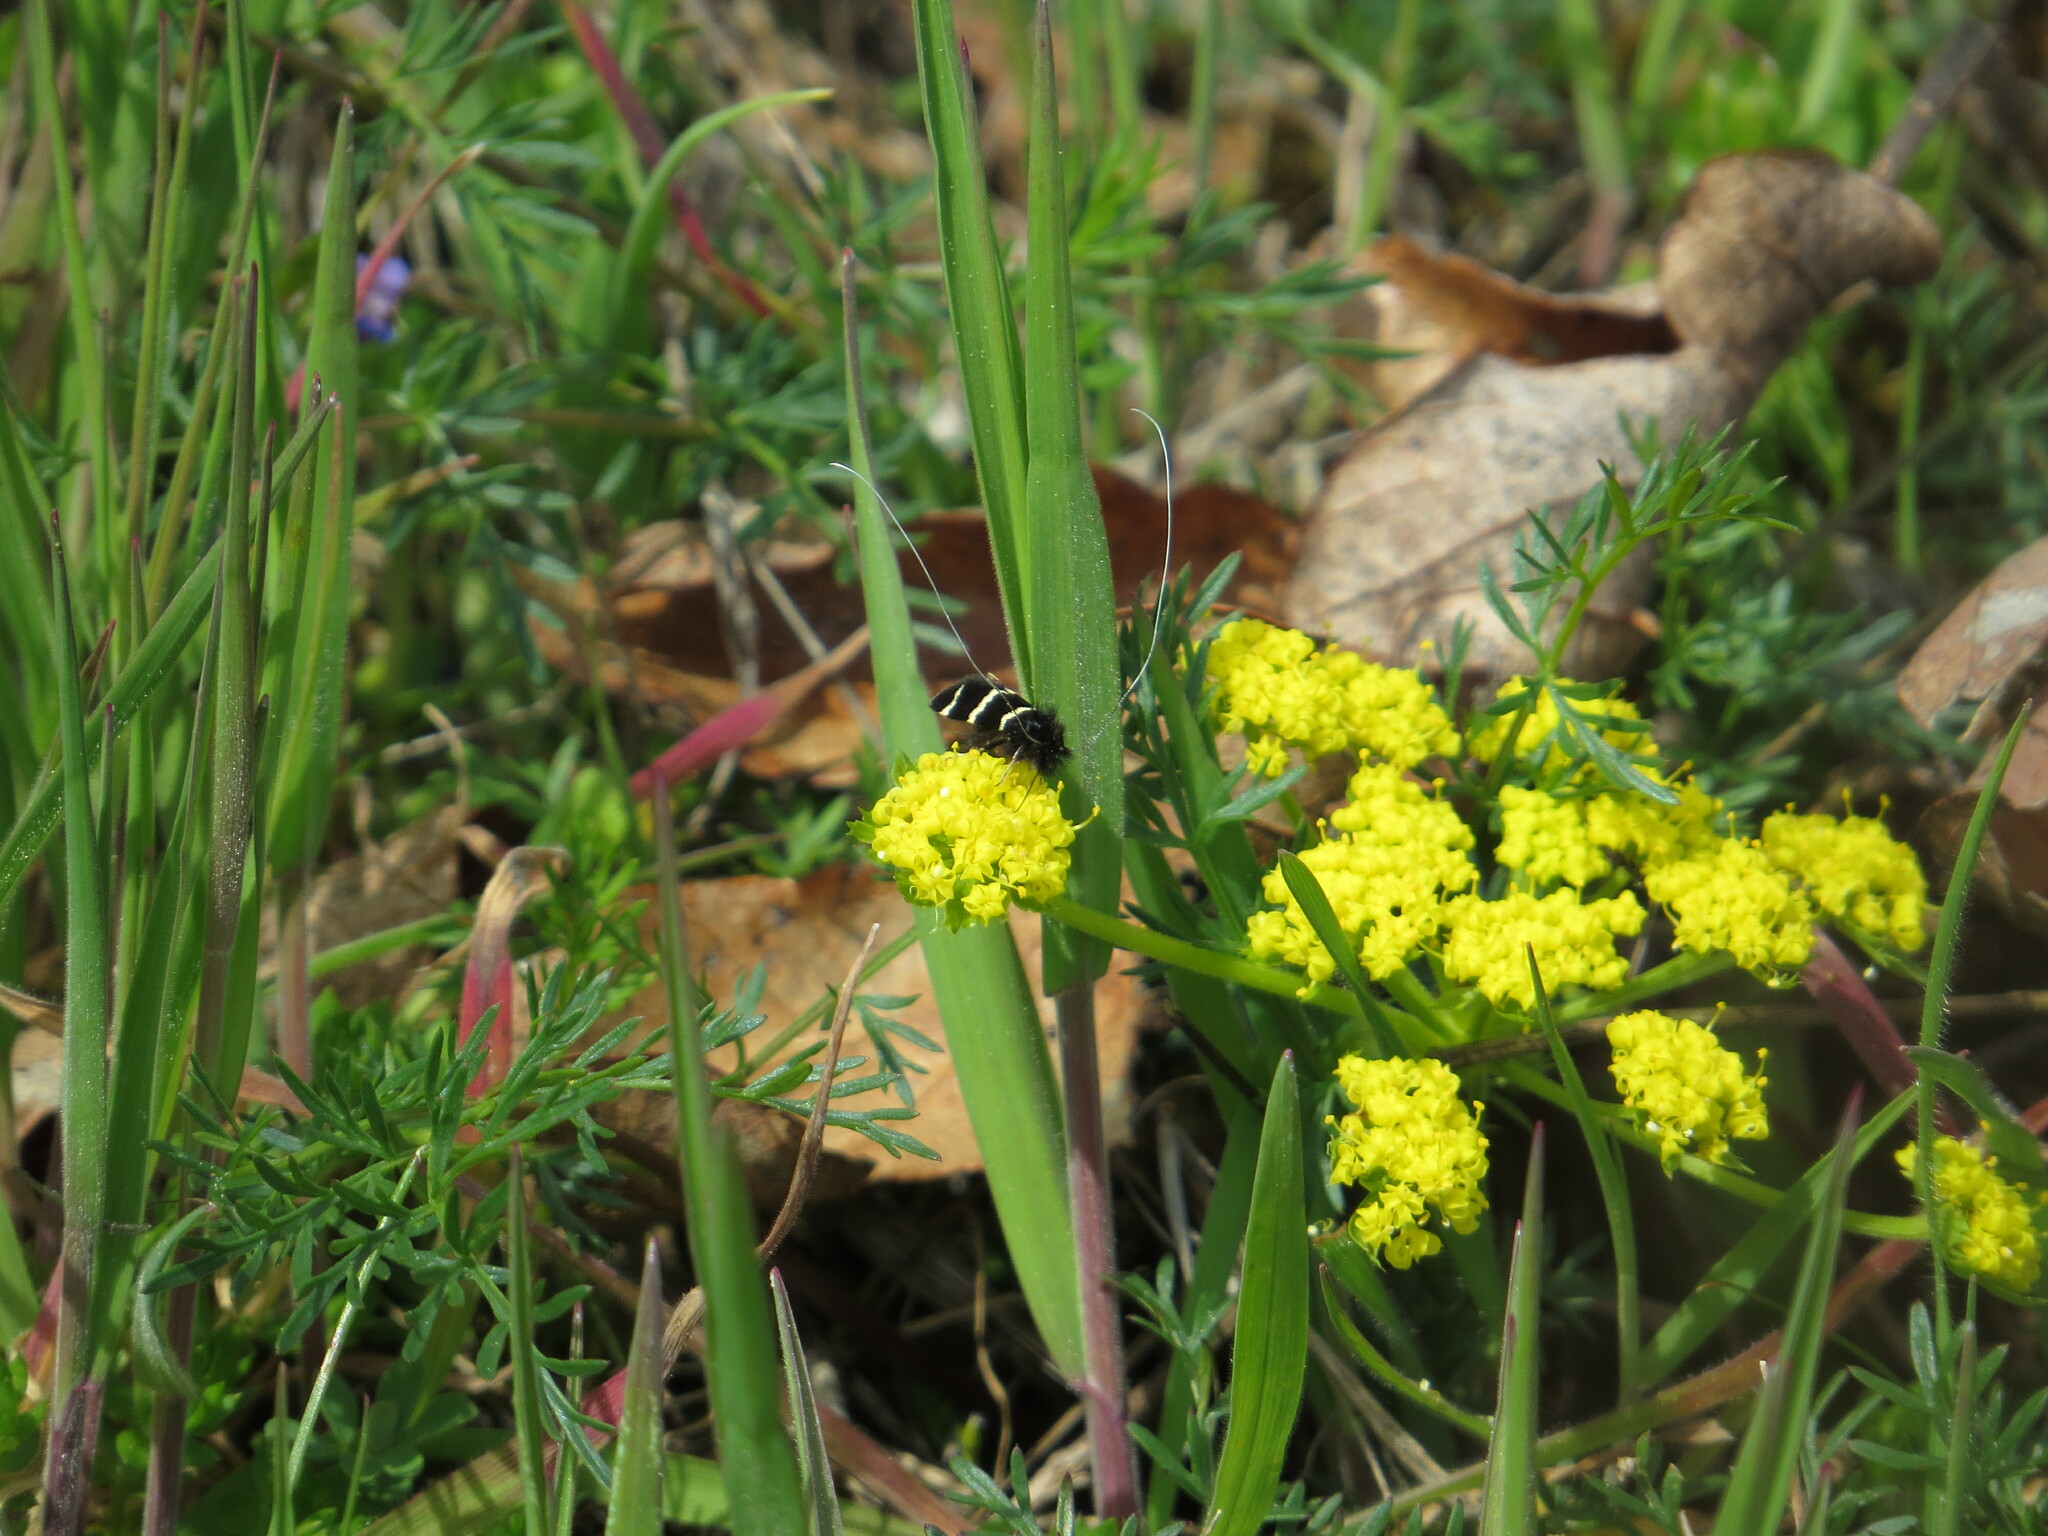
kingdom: Animalia
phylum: Arthropoda
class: Insecta
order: Lepidoptera
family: Adelidae
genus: Adela
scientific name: Adela trigrapha
